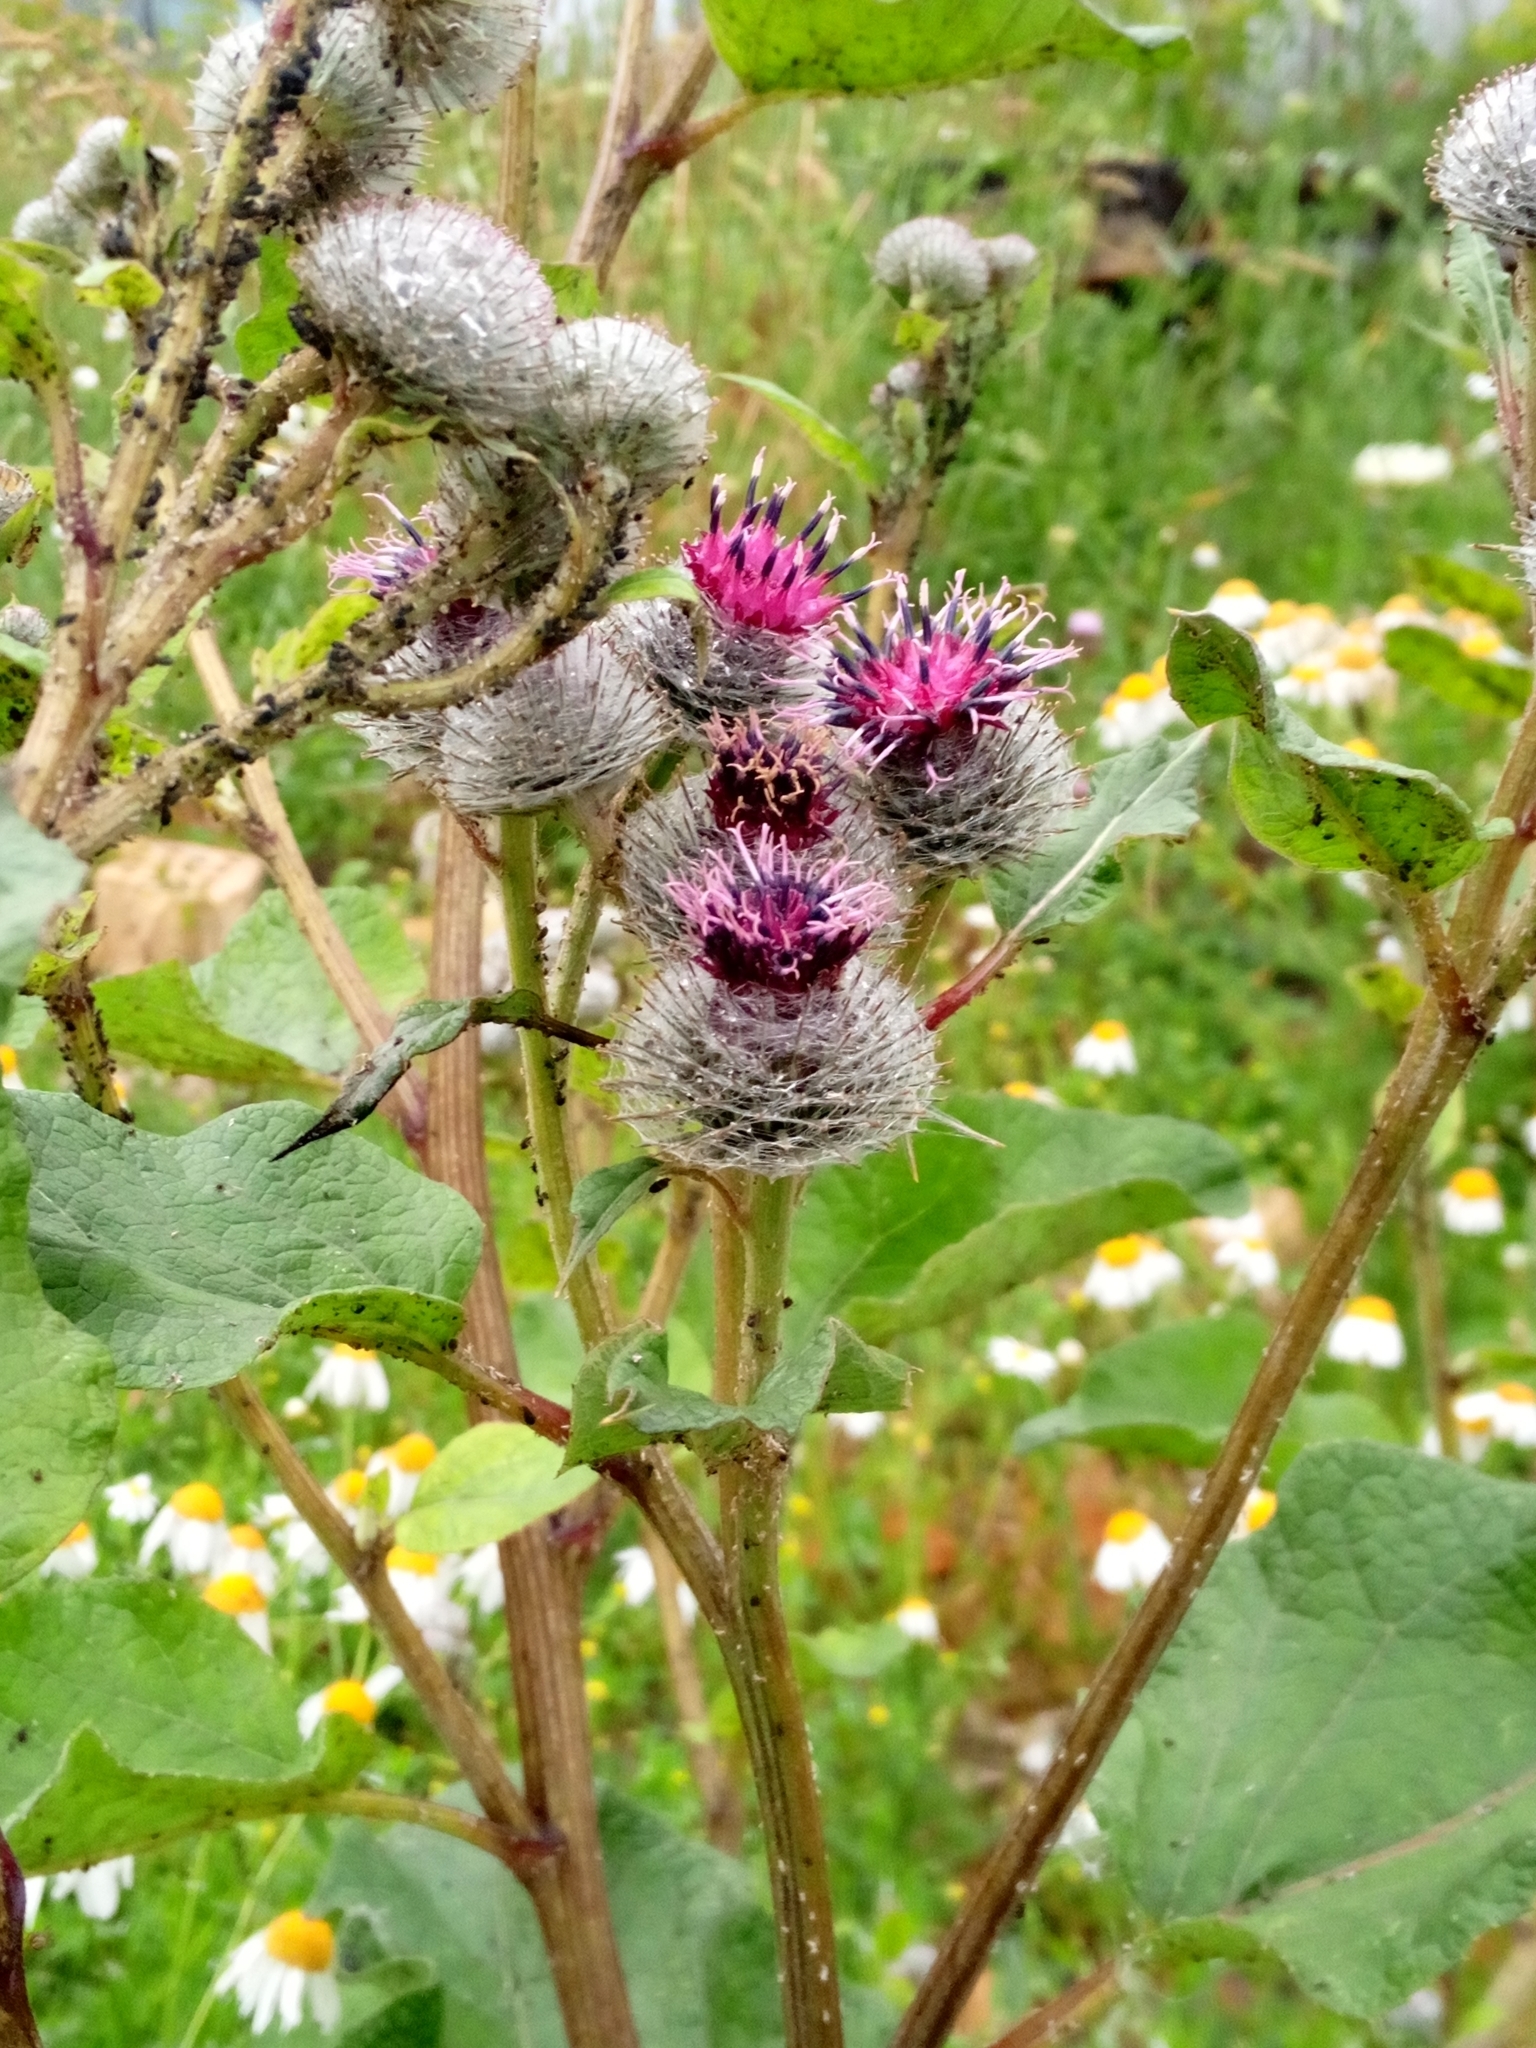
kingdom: Plantae
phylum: Tracheophyta
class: Magnoliopsida
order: Asterales
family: Asteraceae
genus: Arctium
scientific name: Arctium tomentosum
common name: Woolly burdock
